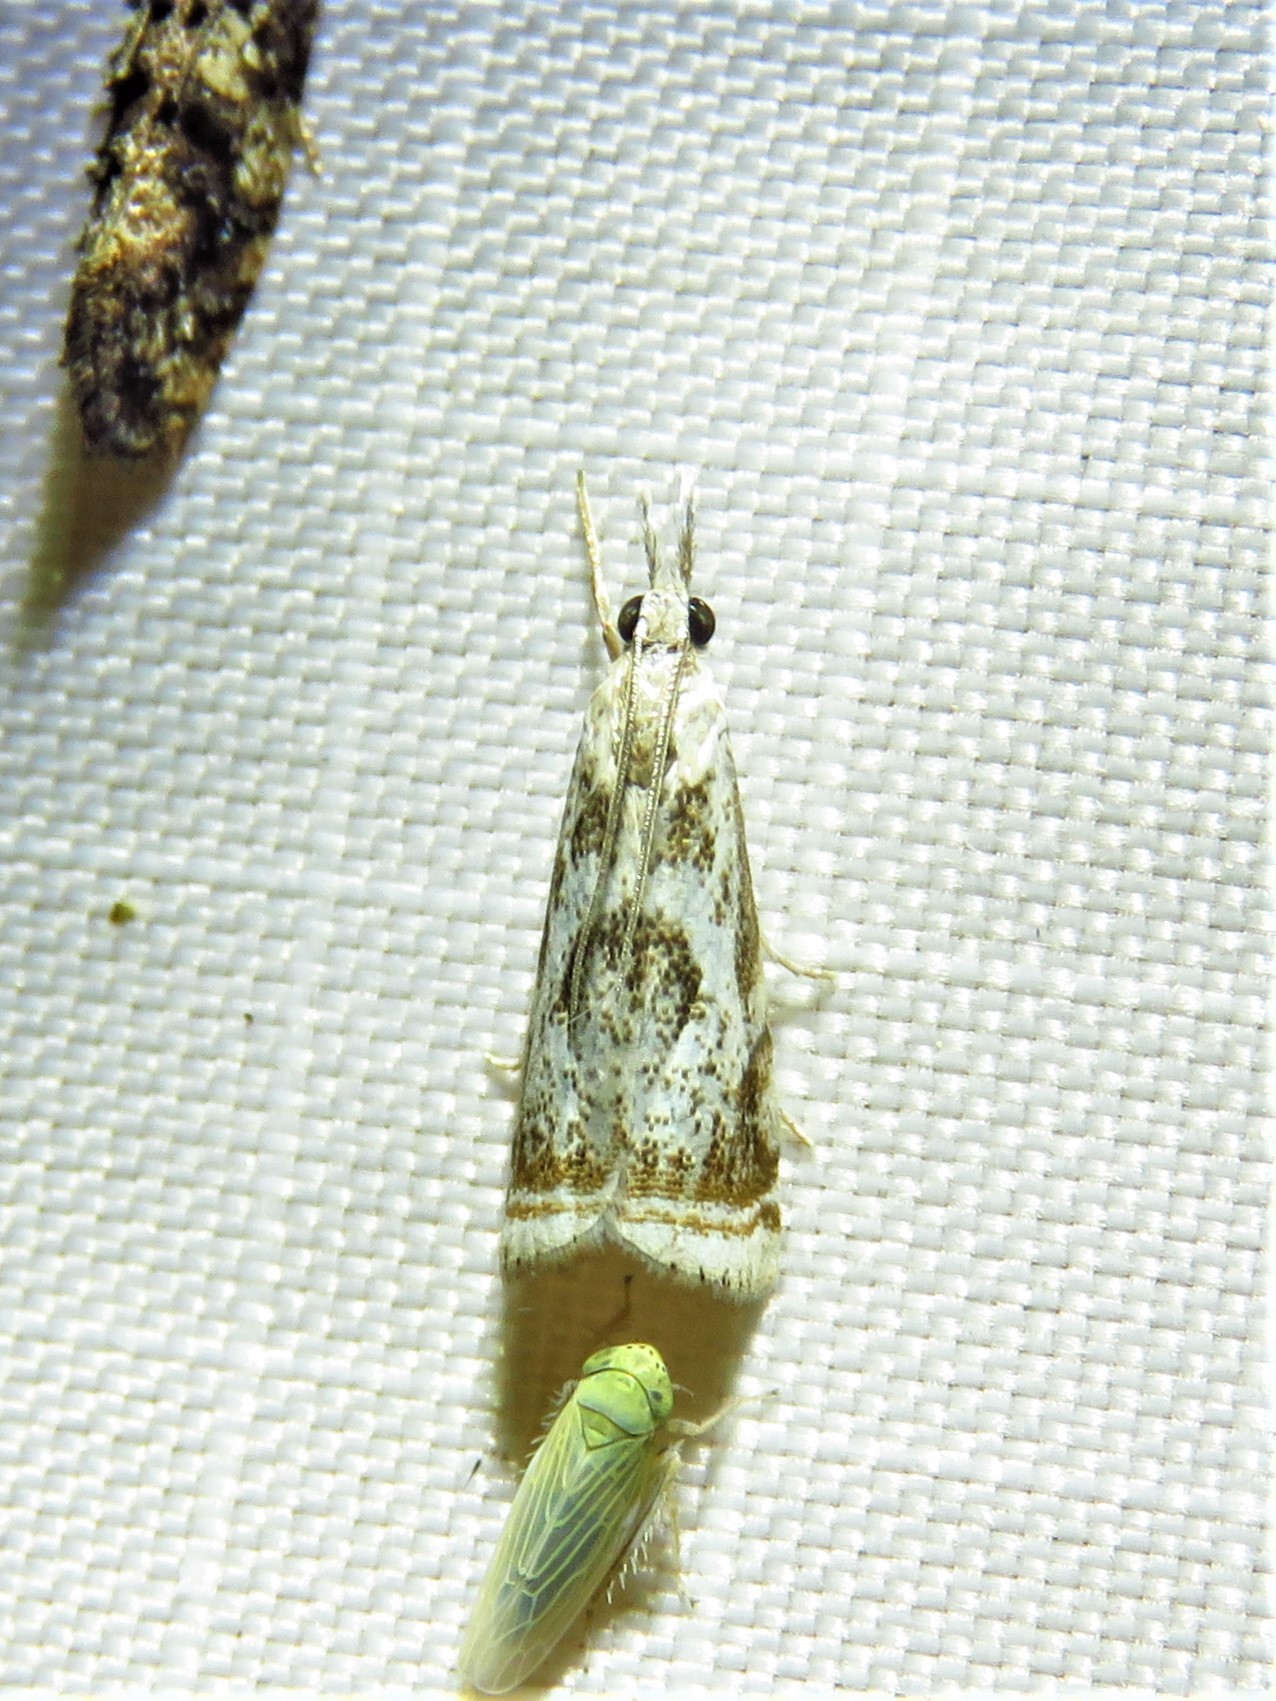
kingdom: Animalia
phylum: Arthropoda
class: Insecta
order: Lepidoptera
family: Crambidae
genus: Microcrambus
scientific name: Microcrambus elegans
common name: Elegant grass-veneer
